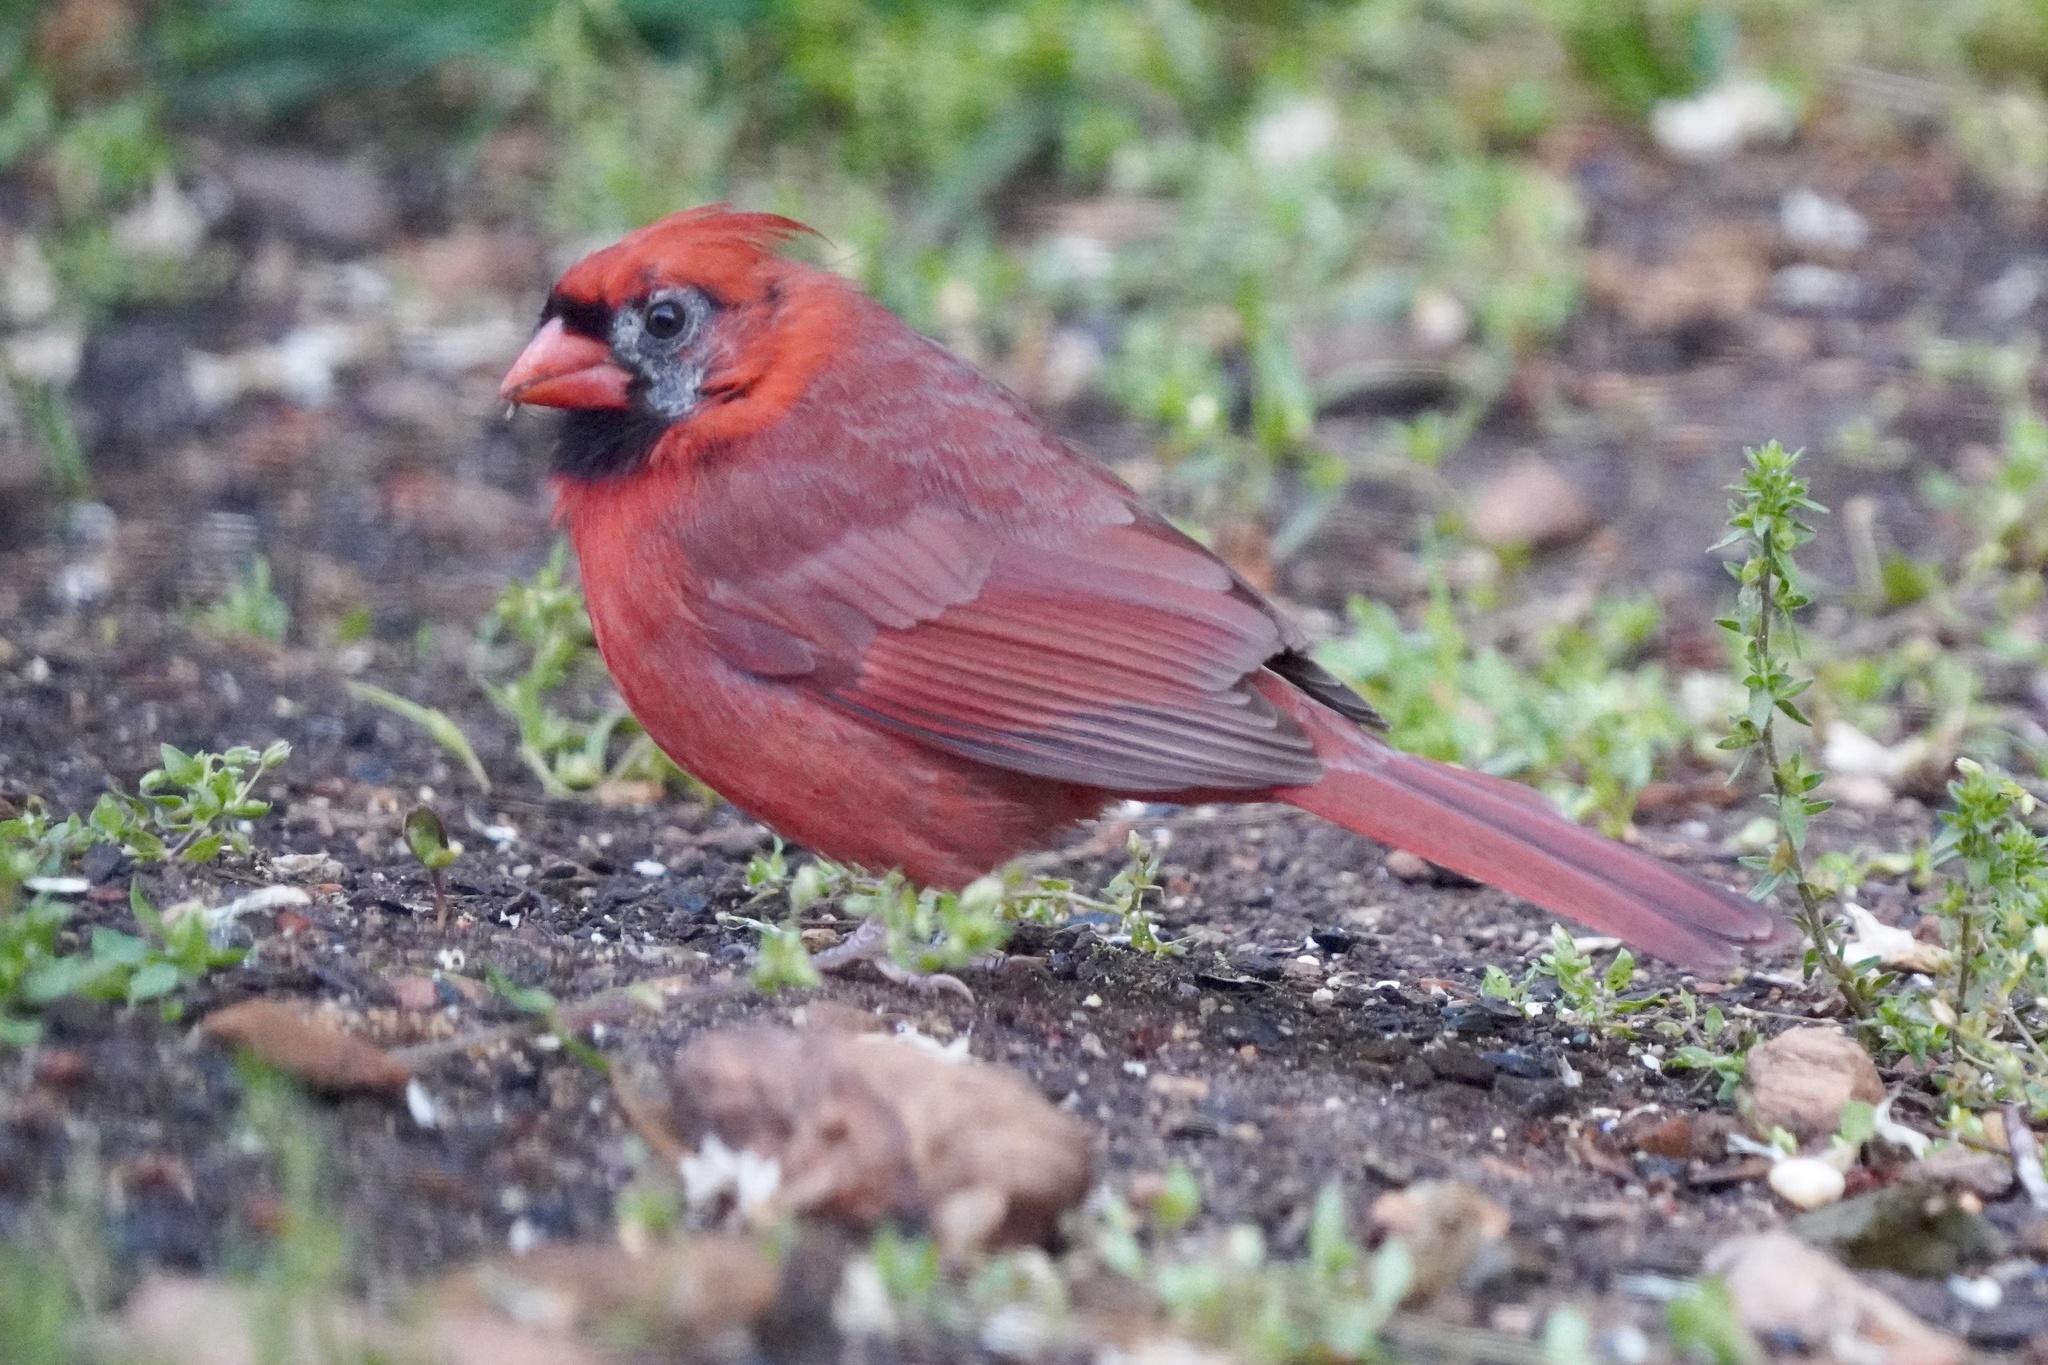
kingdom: Animalia
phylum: Chordata
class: Aves
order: Passeriformes
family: Cardinalidae
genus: Cardinalis
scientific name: Cardinalis cardinalis
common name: Northern cardinal
